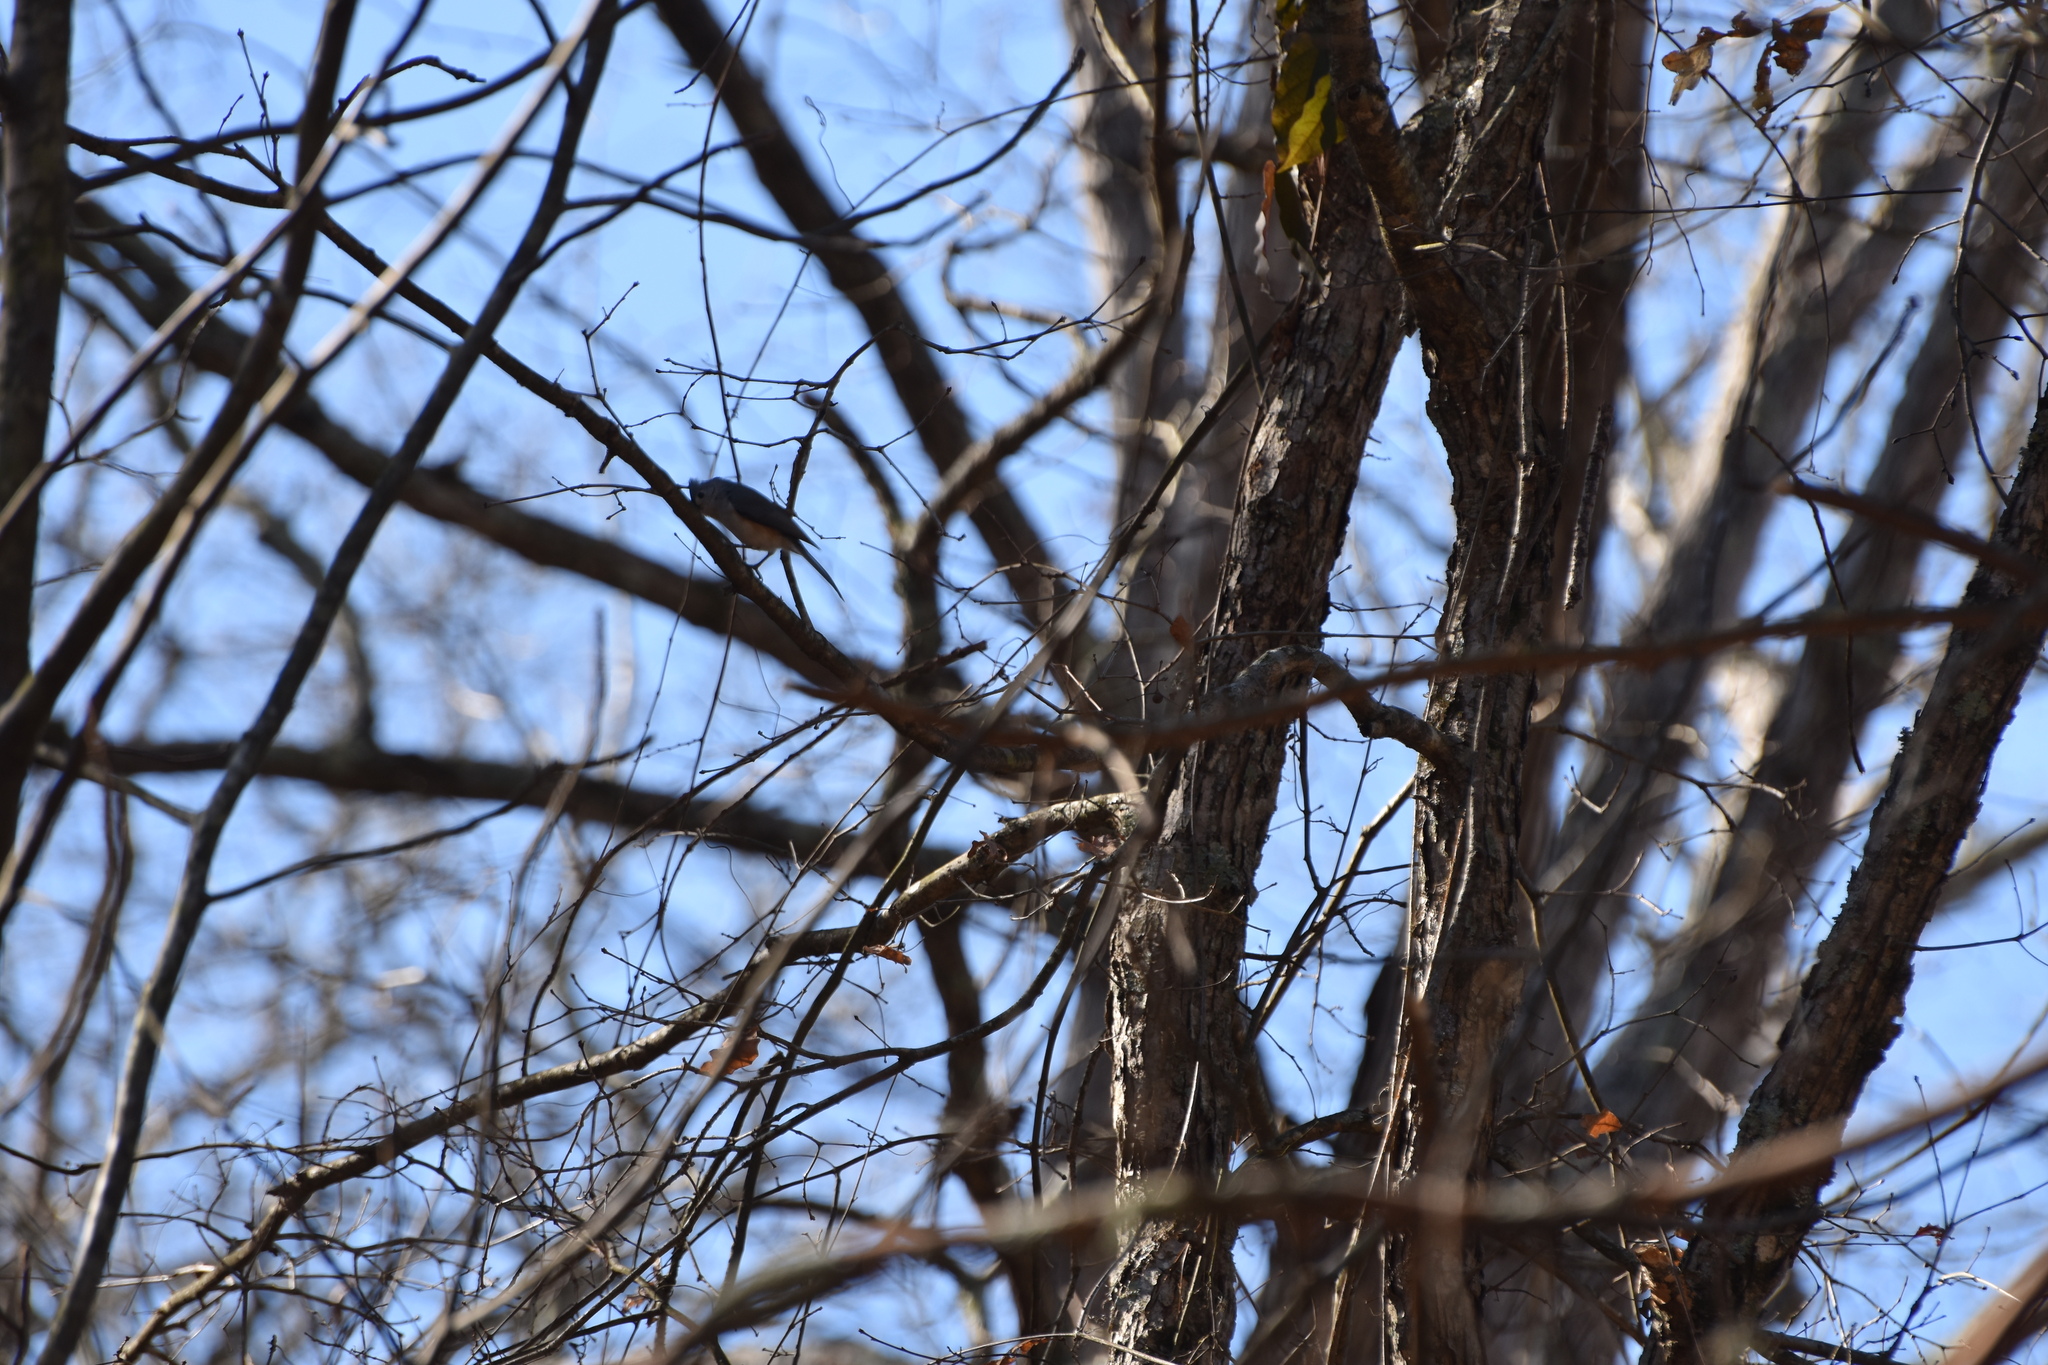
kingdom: Animalia
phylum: Chordata
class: Aves
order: Passeriformes
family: Paridae
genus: Baeolophus
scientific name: Baeolophus bicolor
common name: Tufted titmouse
